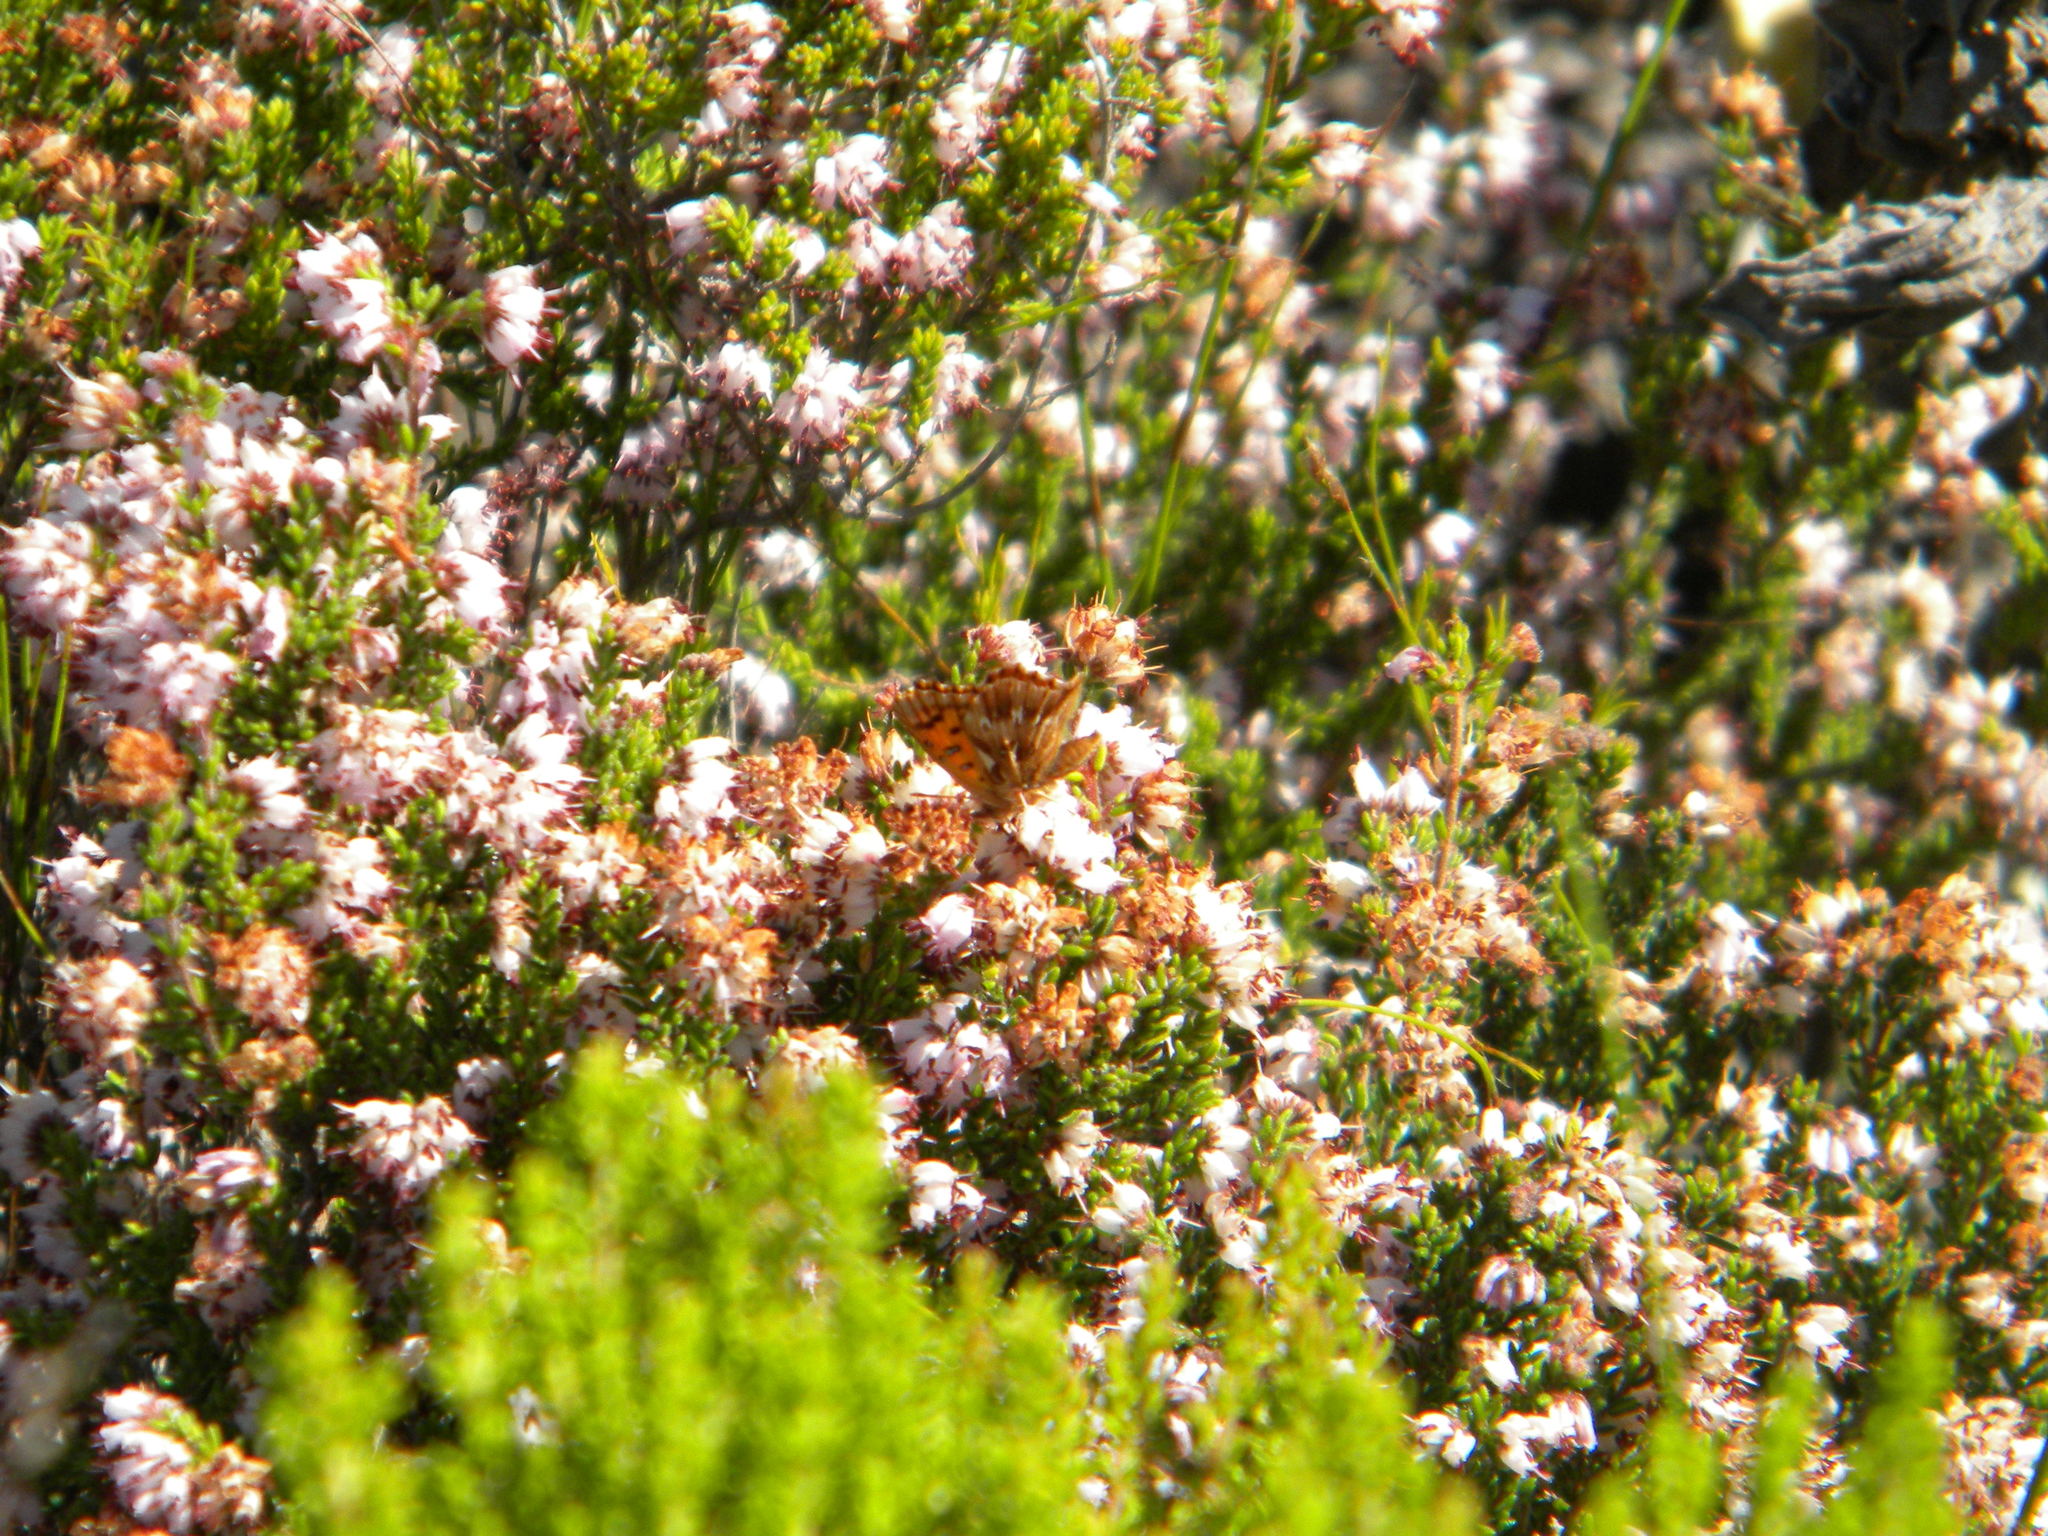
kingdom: Animalia
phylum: Arthropoda
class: Insecta
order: Lepidoptera
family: Lycaenidae
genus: Chrysoritis
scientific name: Chrysoritis
